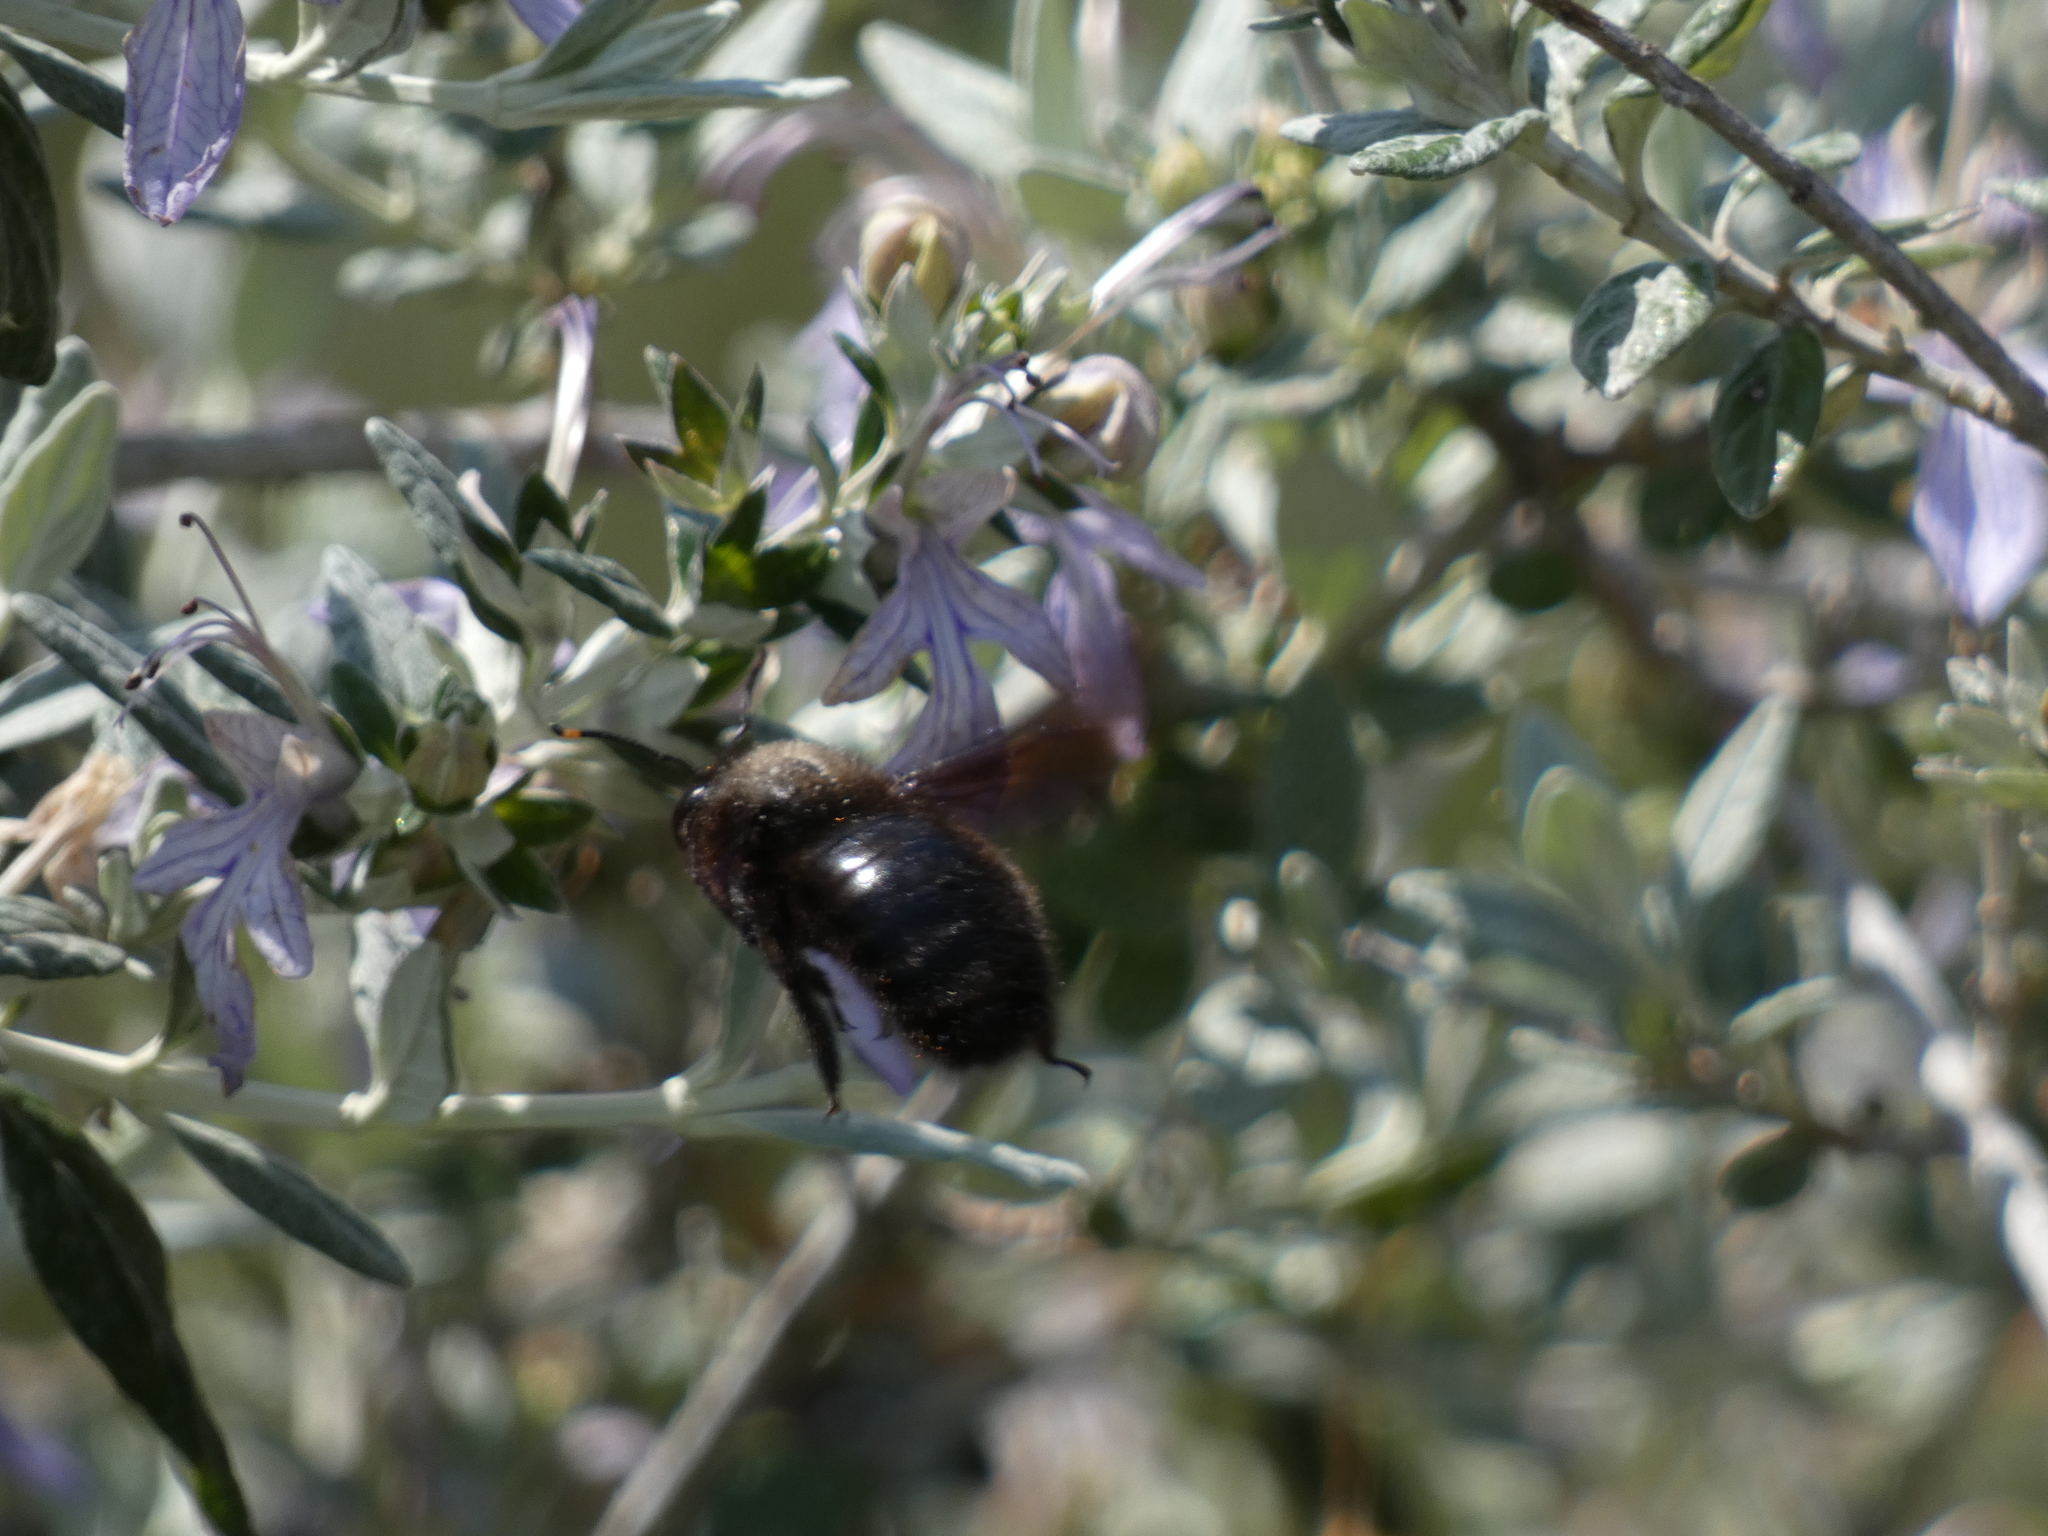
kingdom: Animalia
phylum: Arthropoda
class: Insecta
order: Hymenoptera
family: Apidae
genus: Xylocopa
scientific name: Xylocopa violacea
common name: Violet carpenter bee
